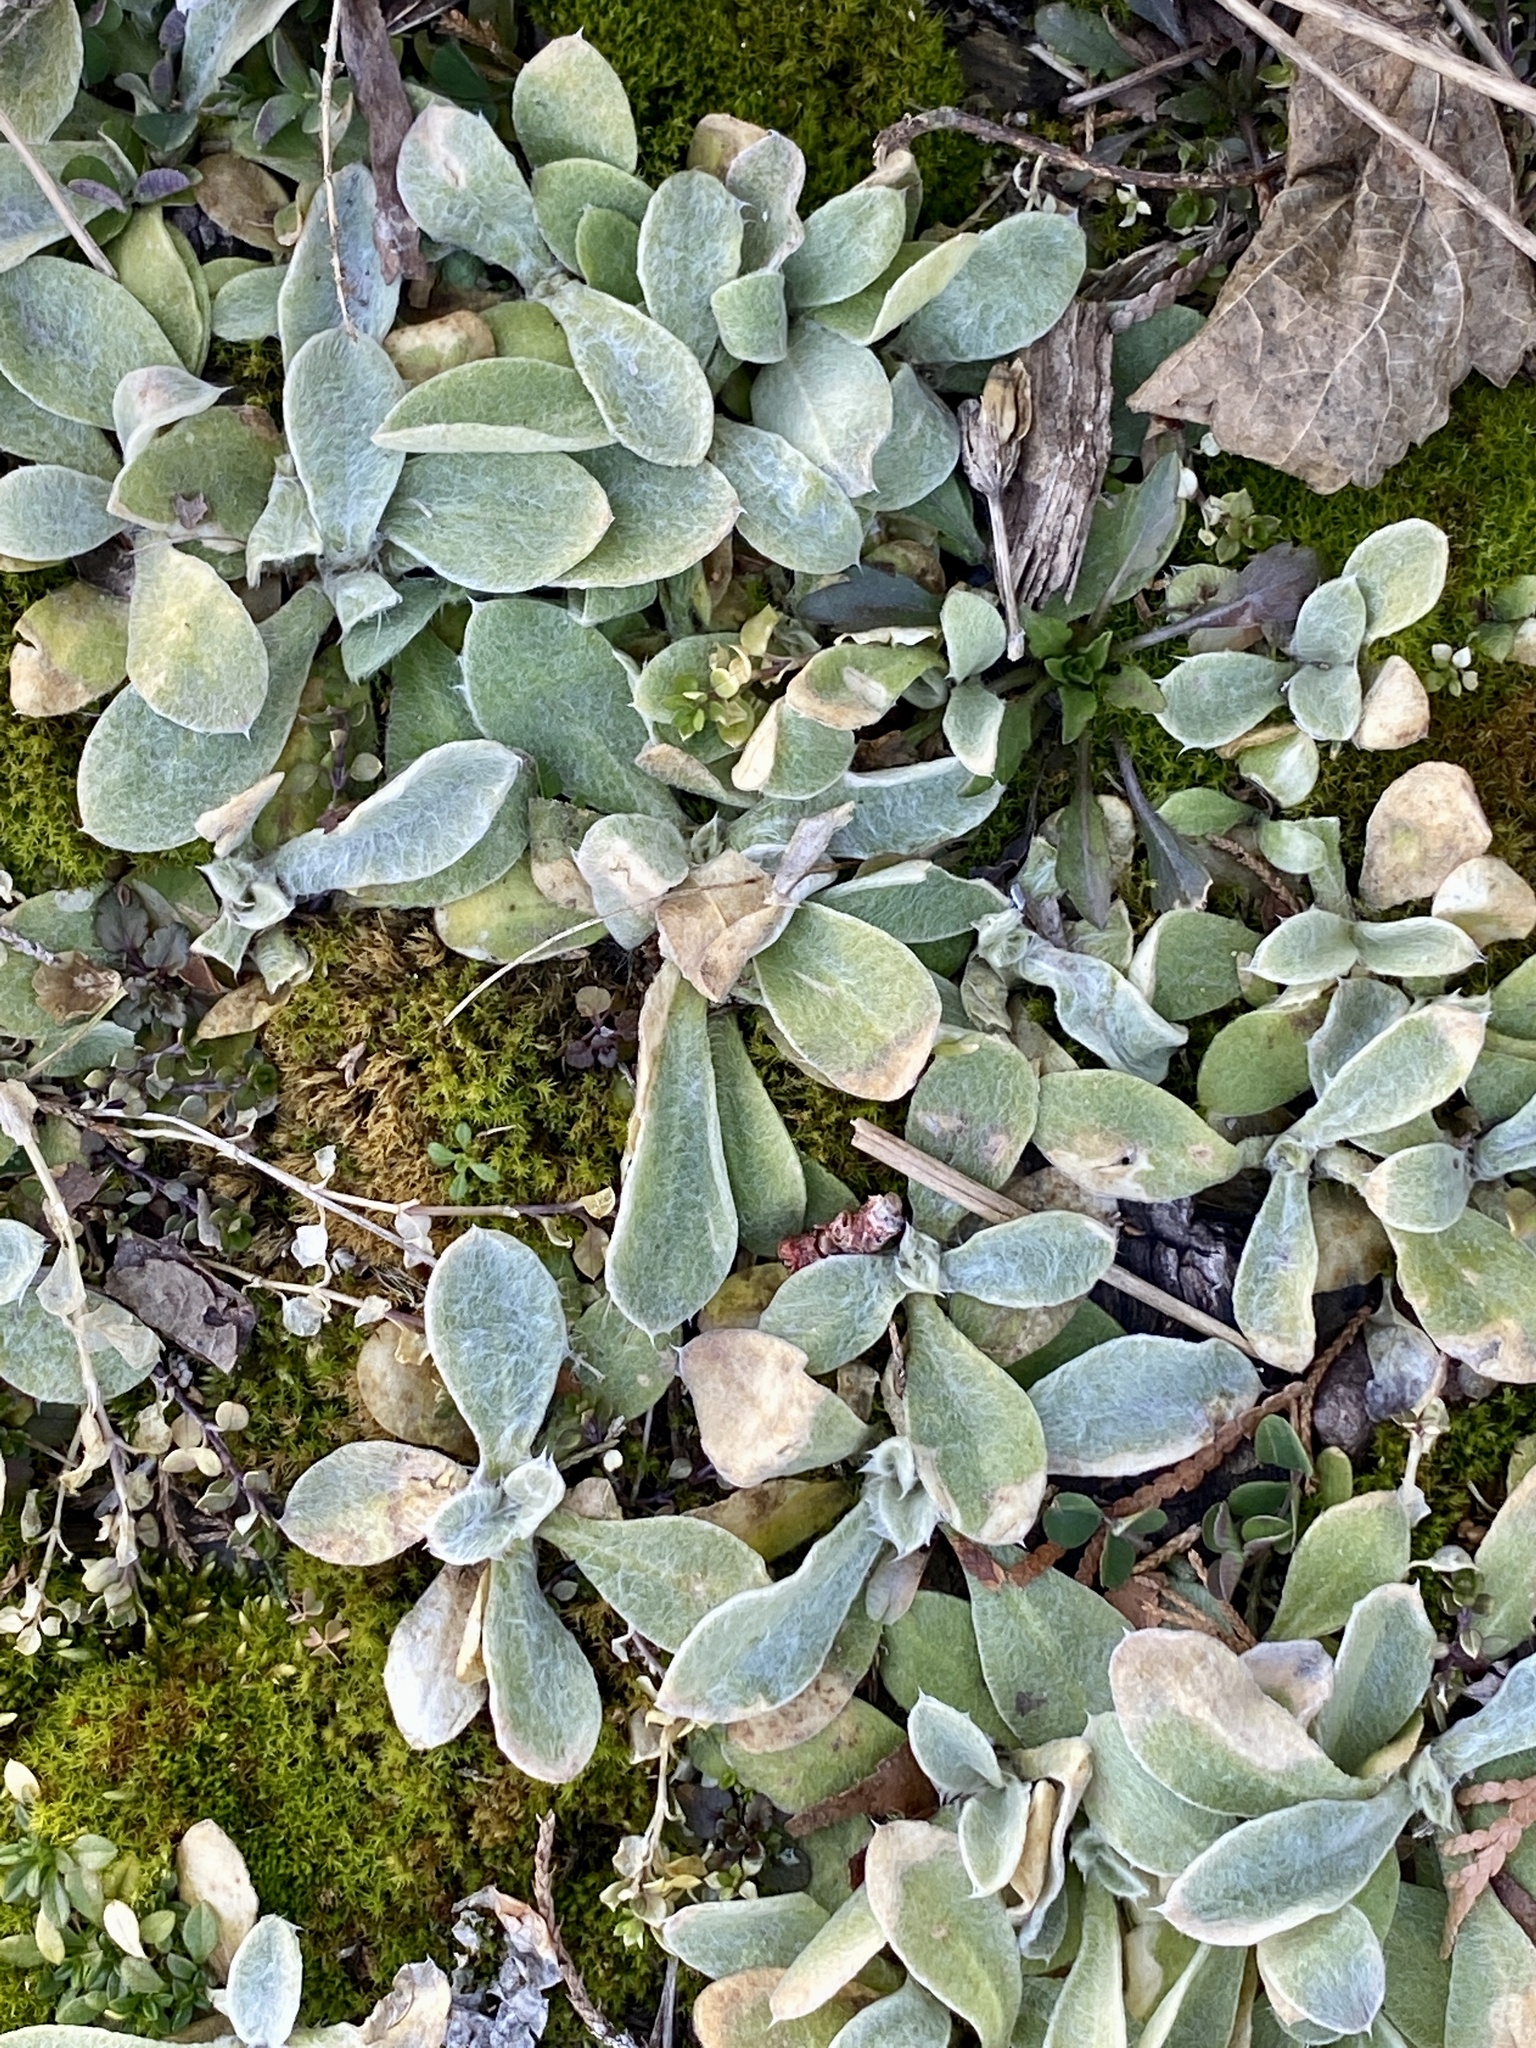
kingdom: Plantae
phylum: Tracheophyta
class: Magnoliopsida
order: Caryophyllales
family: Caryophyllaceae
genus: Silene
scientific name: Silene coronaria
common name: Rose campion
